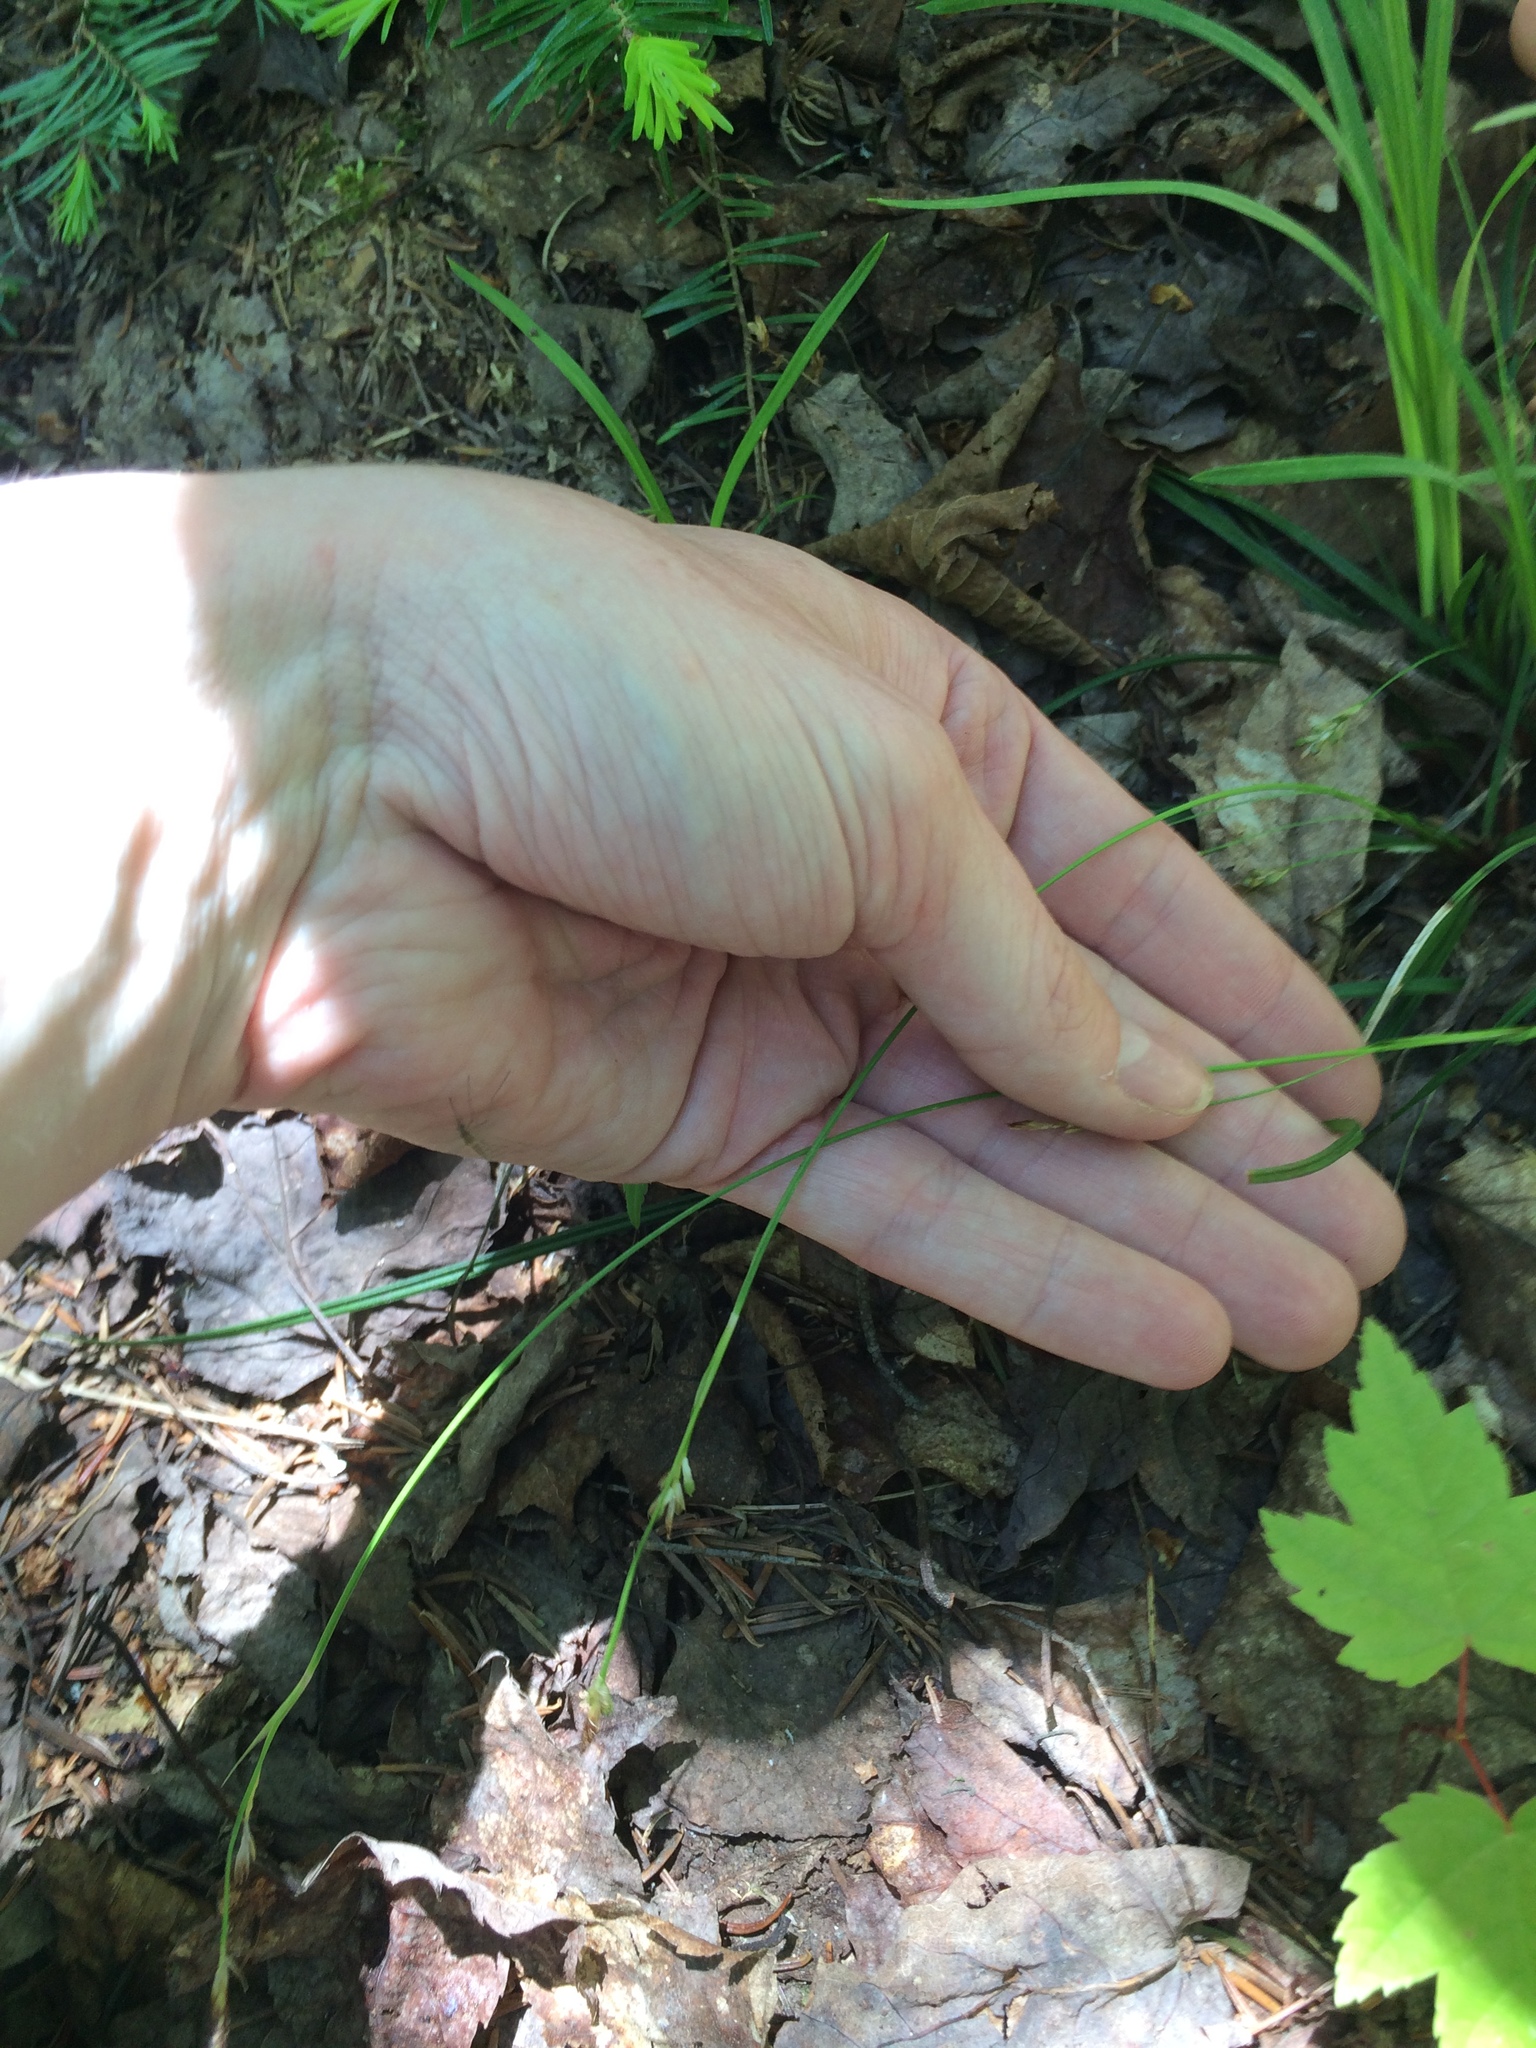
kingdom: Plantae
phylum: Tracheophyta
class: Liliopsida
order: Poales
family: Cyperaceae
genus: Carex
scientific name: Carex pedunculata
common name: Pedunculate sedge
